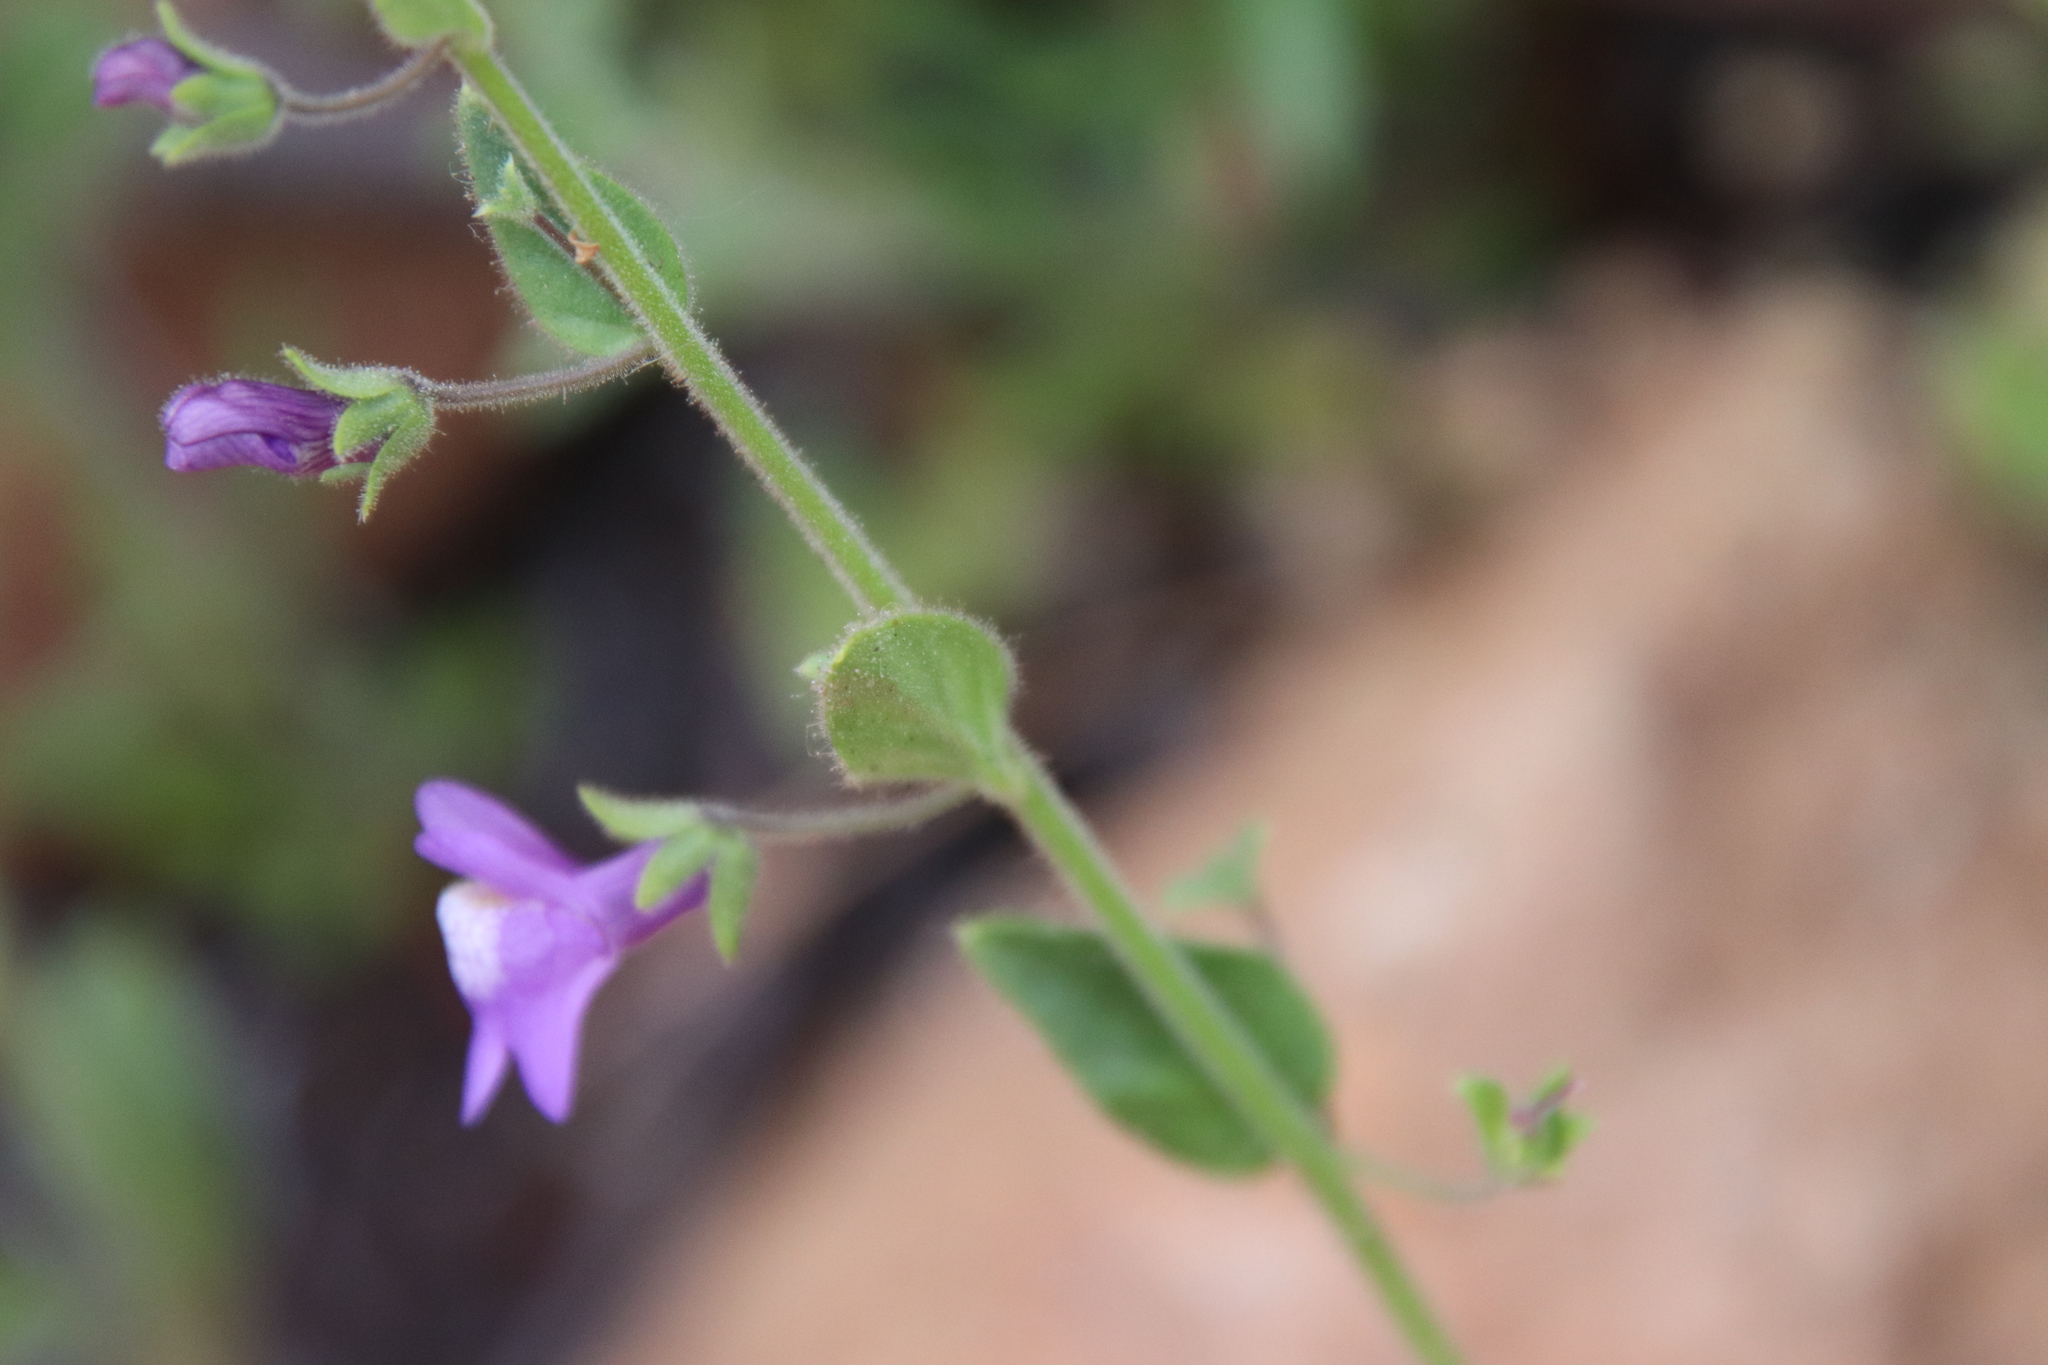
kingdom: Plantae
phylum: Tracheophyta
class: Magnoliopsida
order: Lamiales
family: Plantaginaceae
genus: Sairocarpus
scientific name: Sairocarpus nuttallianus
